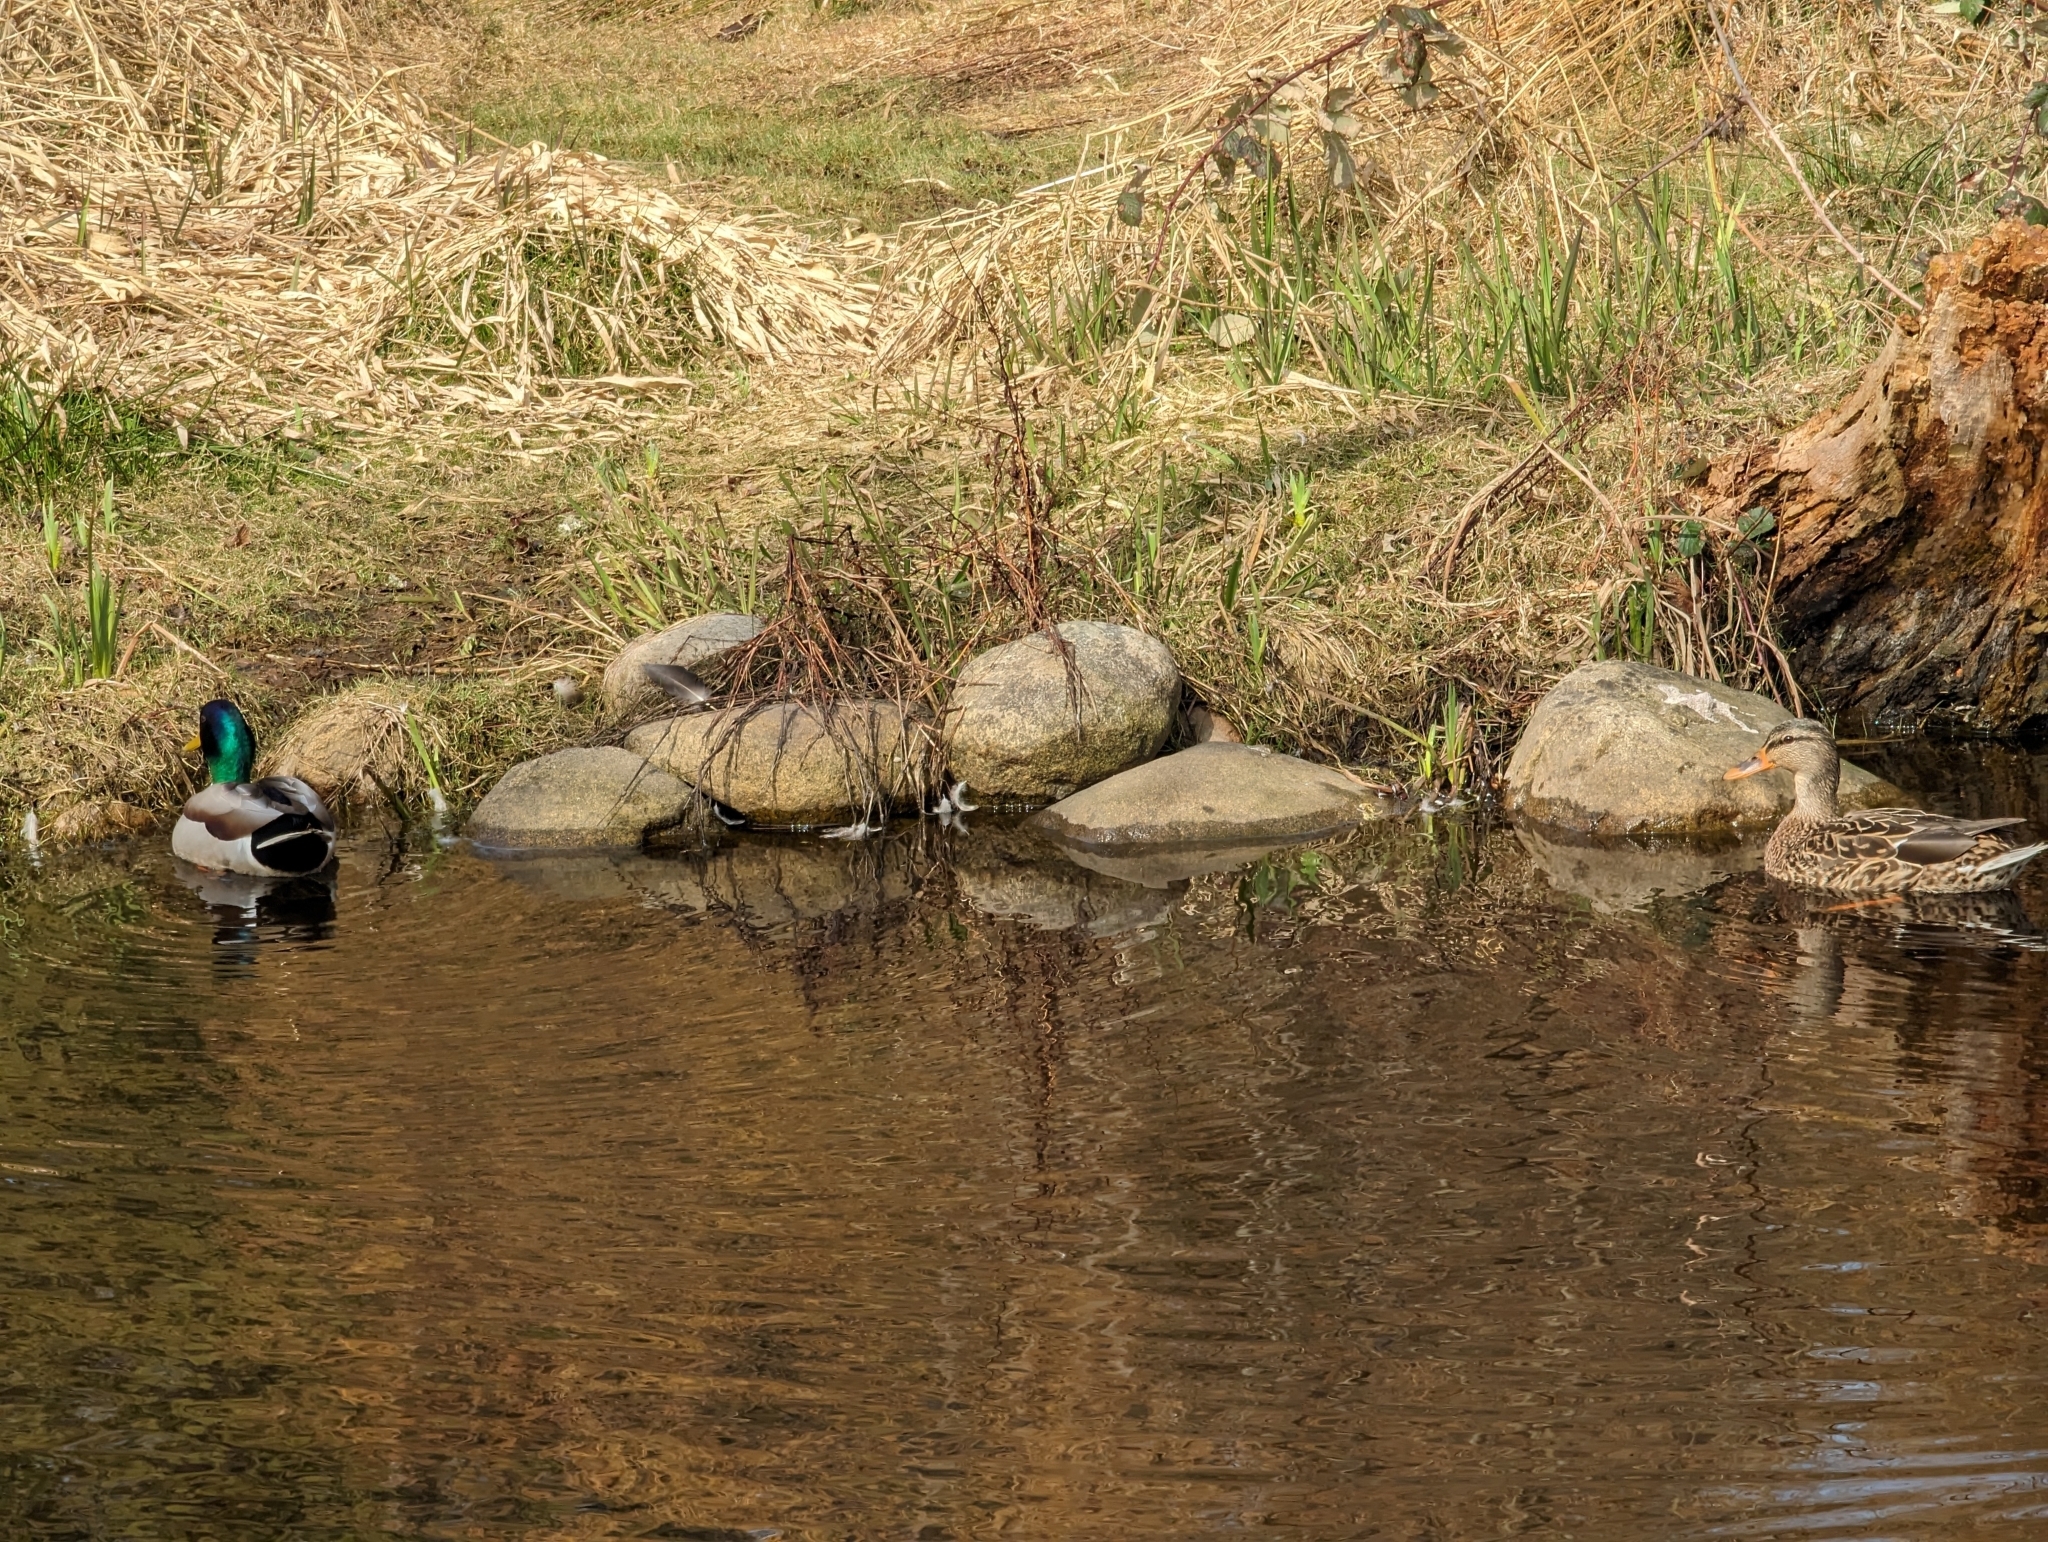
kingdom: Animalia
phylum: Chordata
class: Aves
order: Anseriformes
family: Anatidae
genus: Anas
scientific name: Anas platyrhynchos
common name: Mallard
